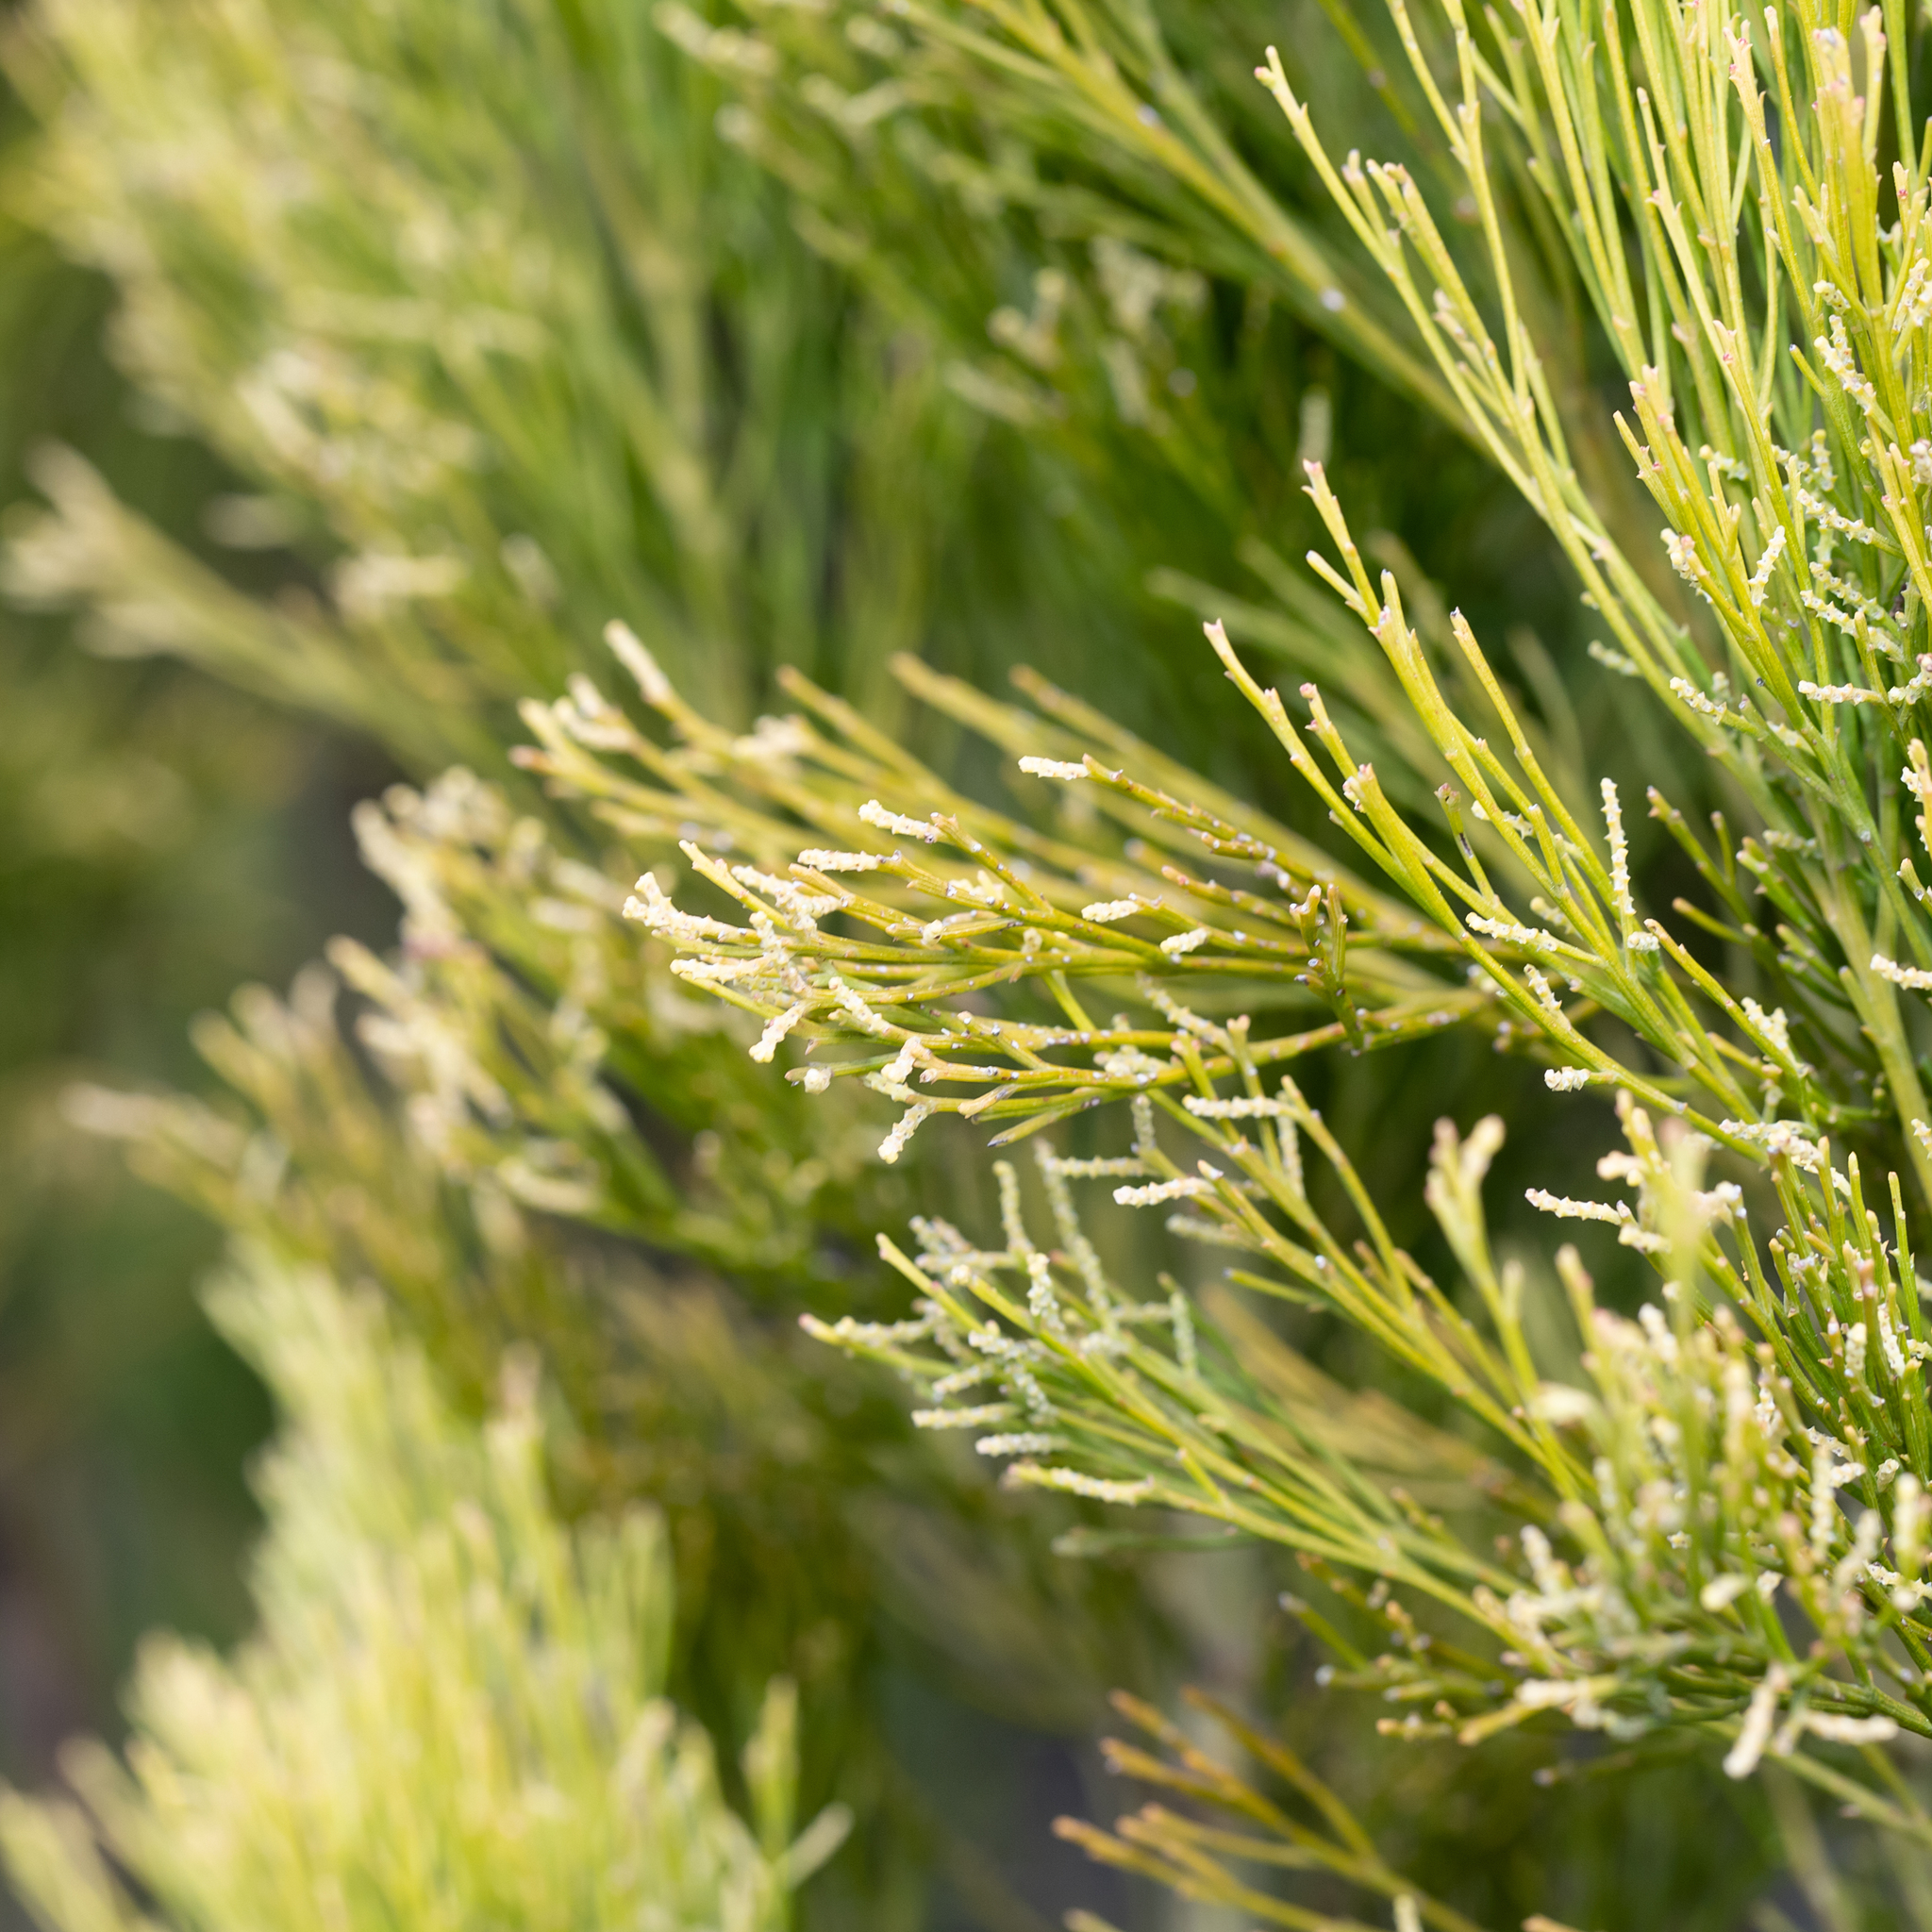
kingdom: Plantae
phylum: Tracheophyta
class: Magnoliopsida
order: Santalales
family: Santalaceae
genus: Exocarpos
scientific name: Exocarpos cupressiformis
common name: Cherry ballart
